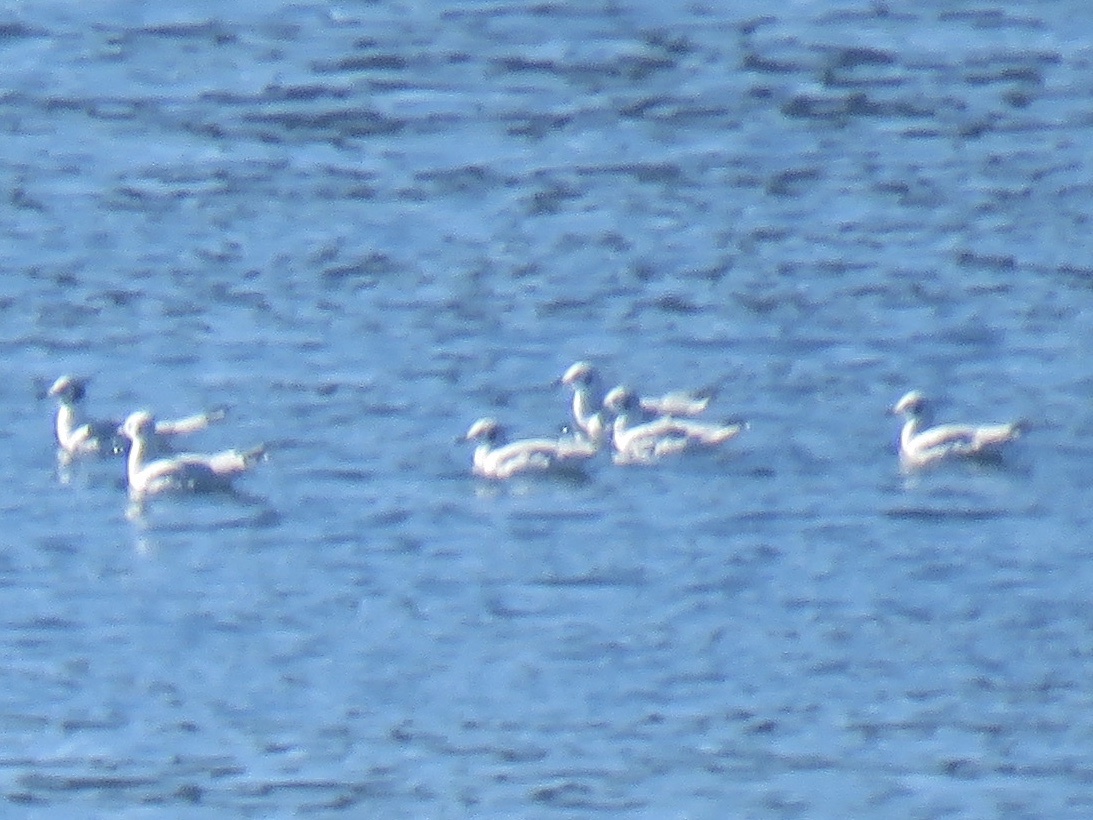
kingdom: Animalia
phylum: Chordata
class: Aves
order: Charadriiformes
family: Laridae
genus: Chroicocephalus
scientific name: Chroicocephalus philadelphia
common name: Bonaparte's gull
